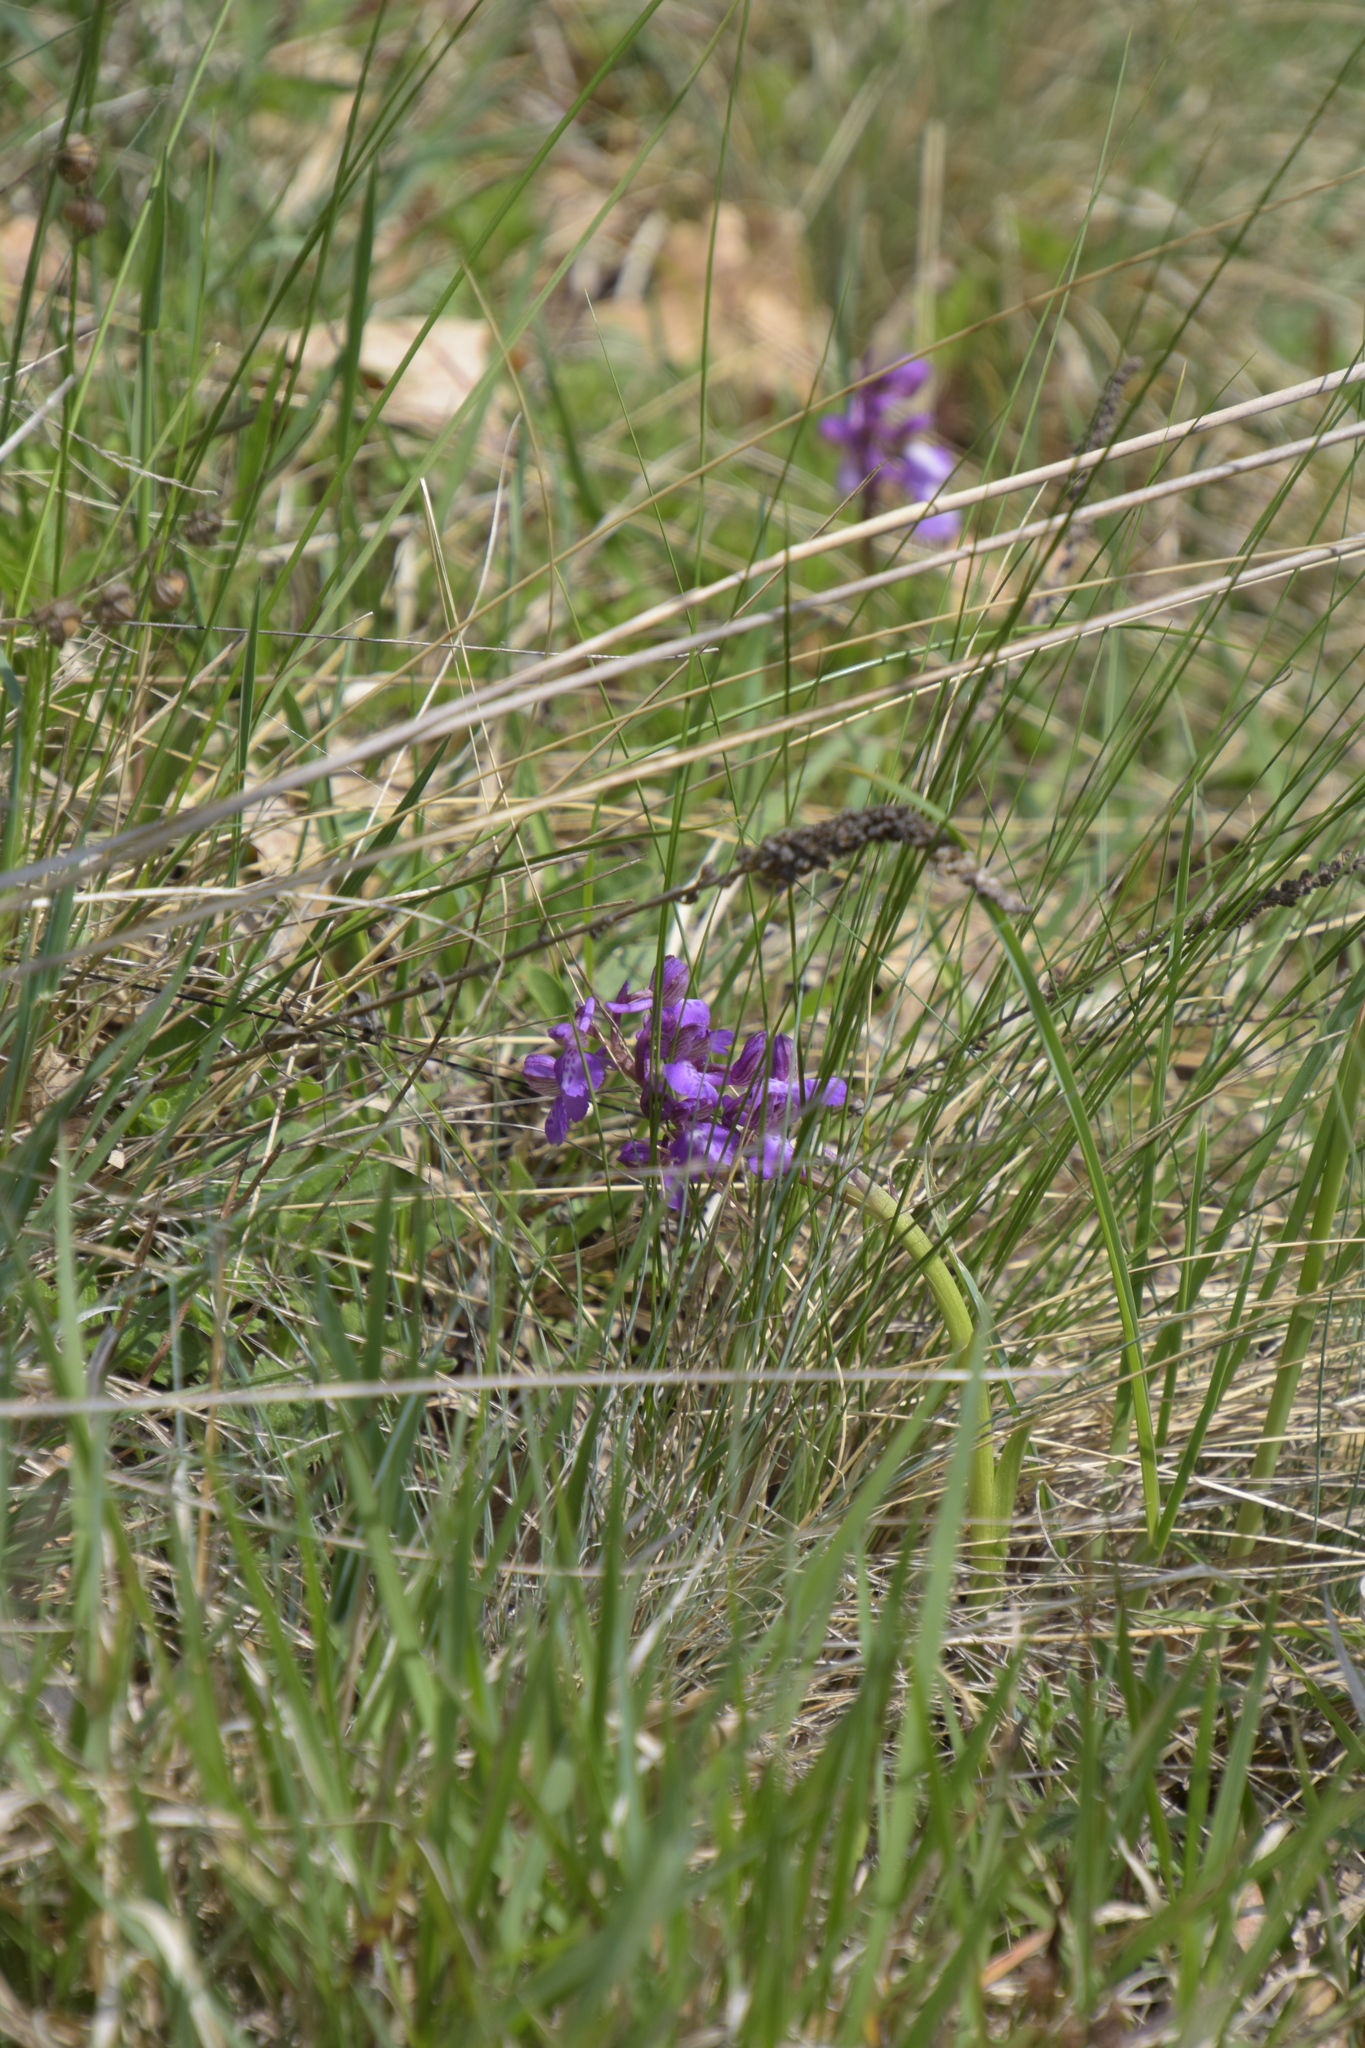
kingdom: Plantae
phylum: Tracheophyta
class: Liliopsida
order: Asparagales
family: Orchidaceae
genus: Anacamptis
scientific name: Anacamptis morio
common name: Green-winged orchid
